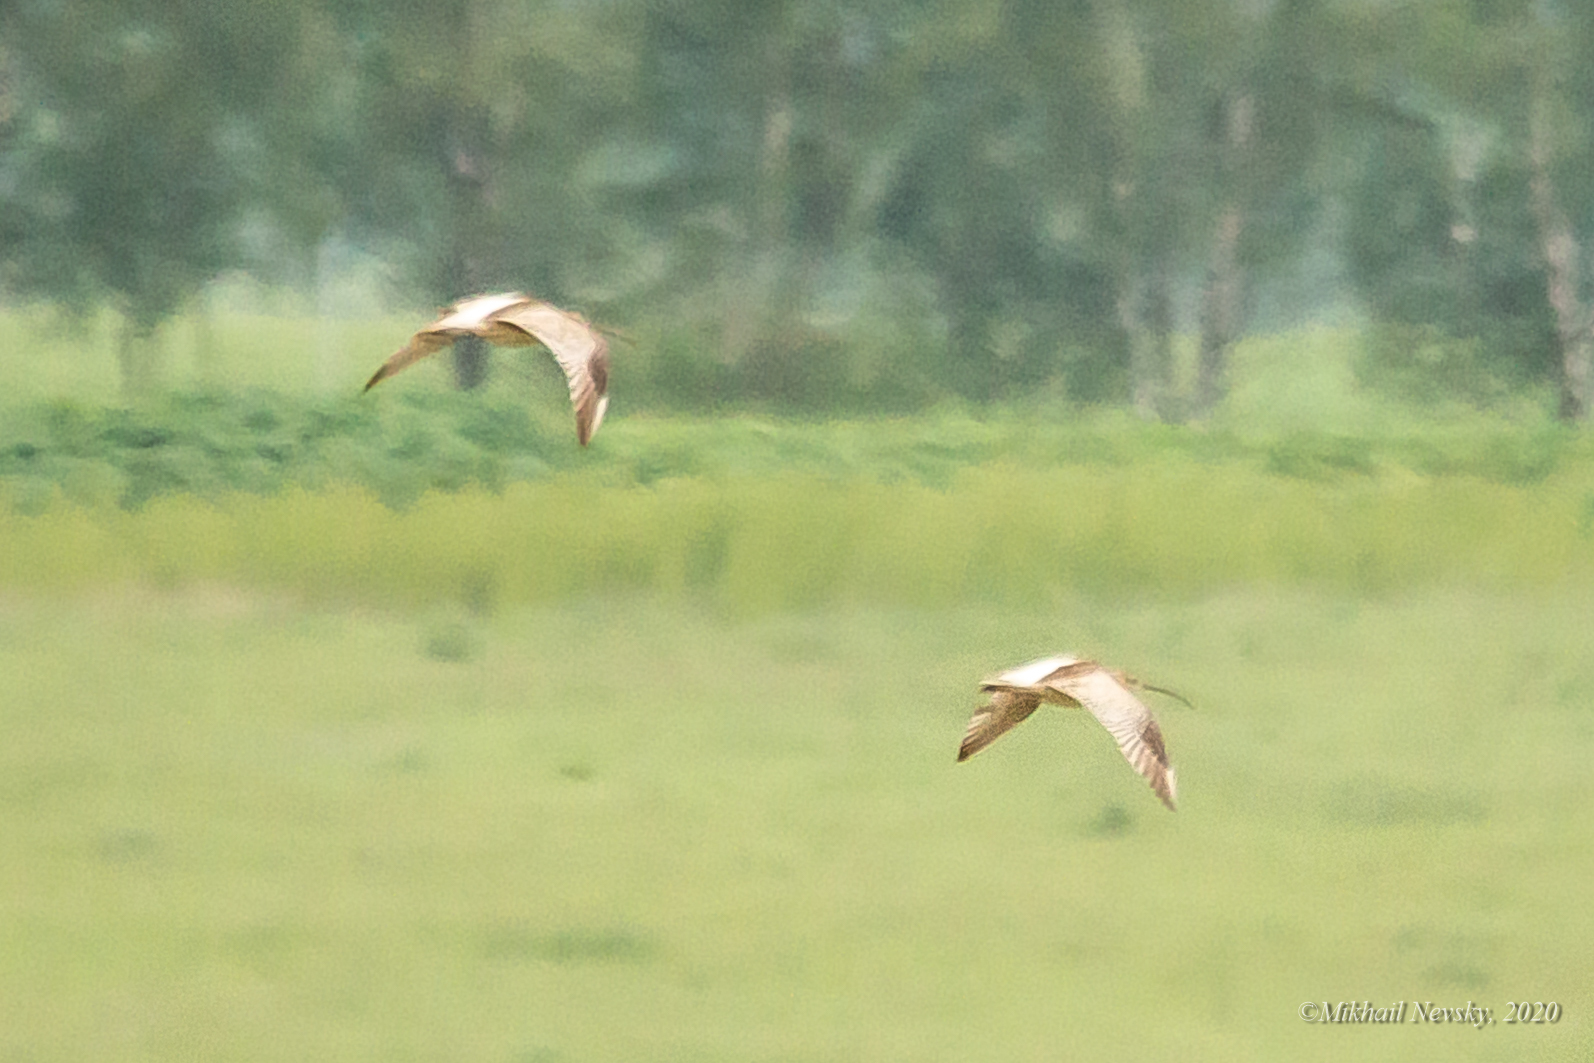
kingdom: Animalia
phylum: Chordata
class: Aves
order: Charadriiformes
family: Scolopacidae
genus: Numenius
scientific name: Numenius arquata
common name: Eurasian curlew
